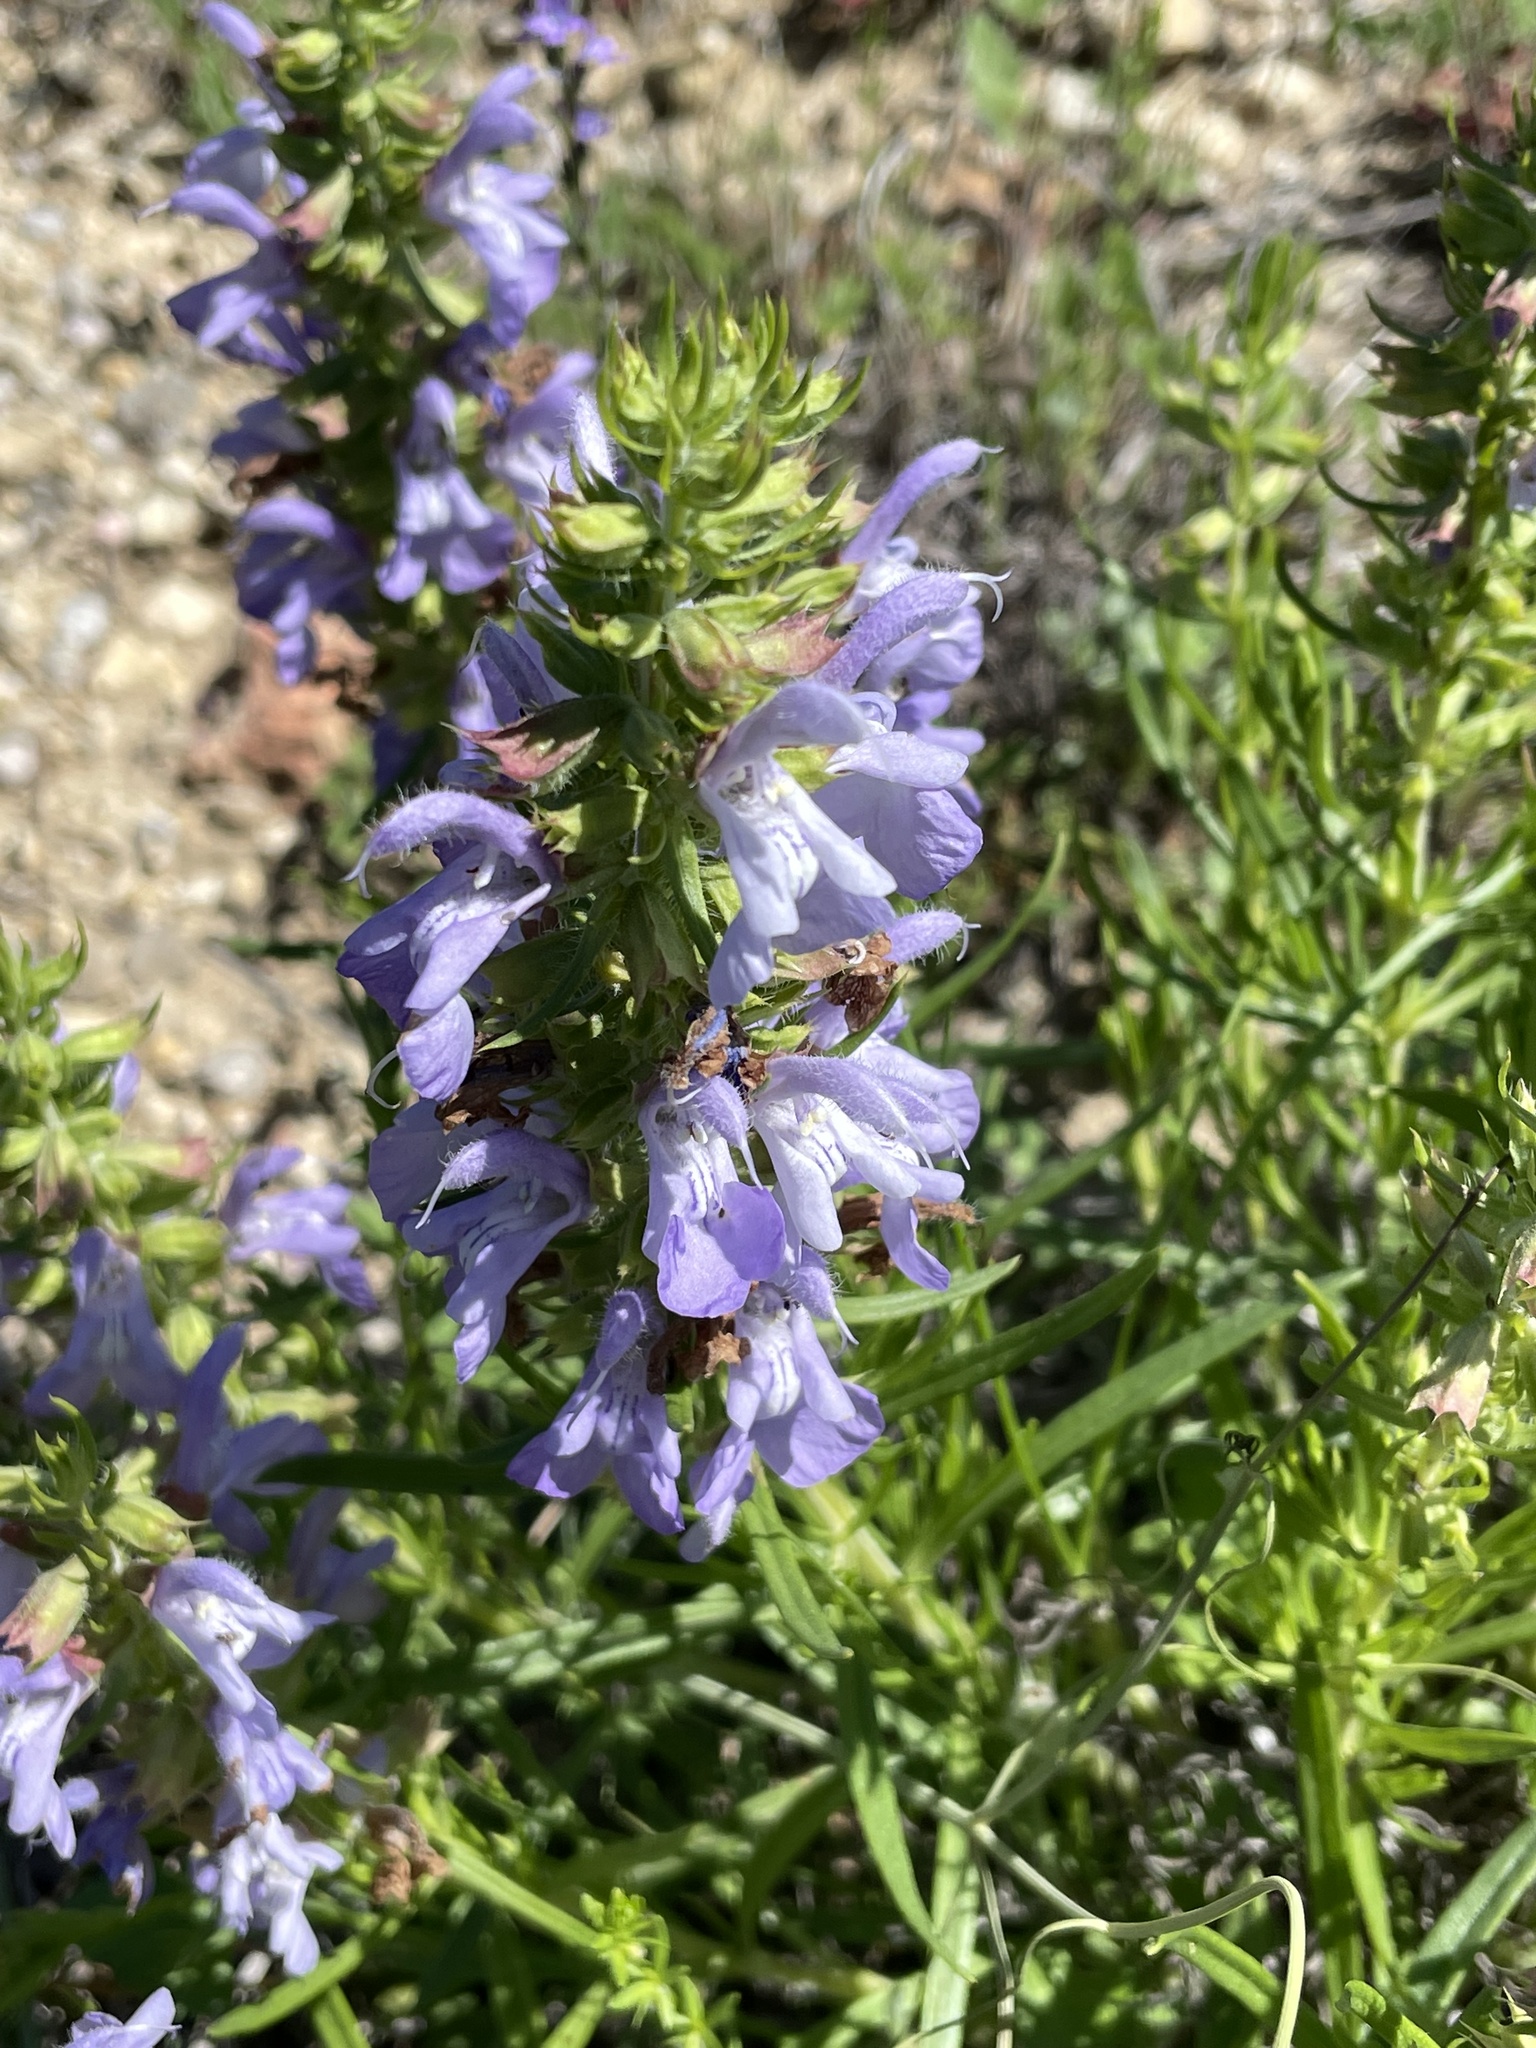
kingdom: Plantae
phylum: Tracheophyta
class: Magnoliopsida
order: Lamiales
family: Lamiaceae
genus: Salvia
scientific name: Salvia engelmannii
